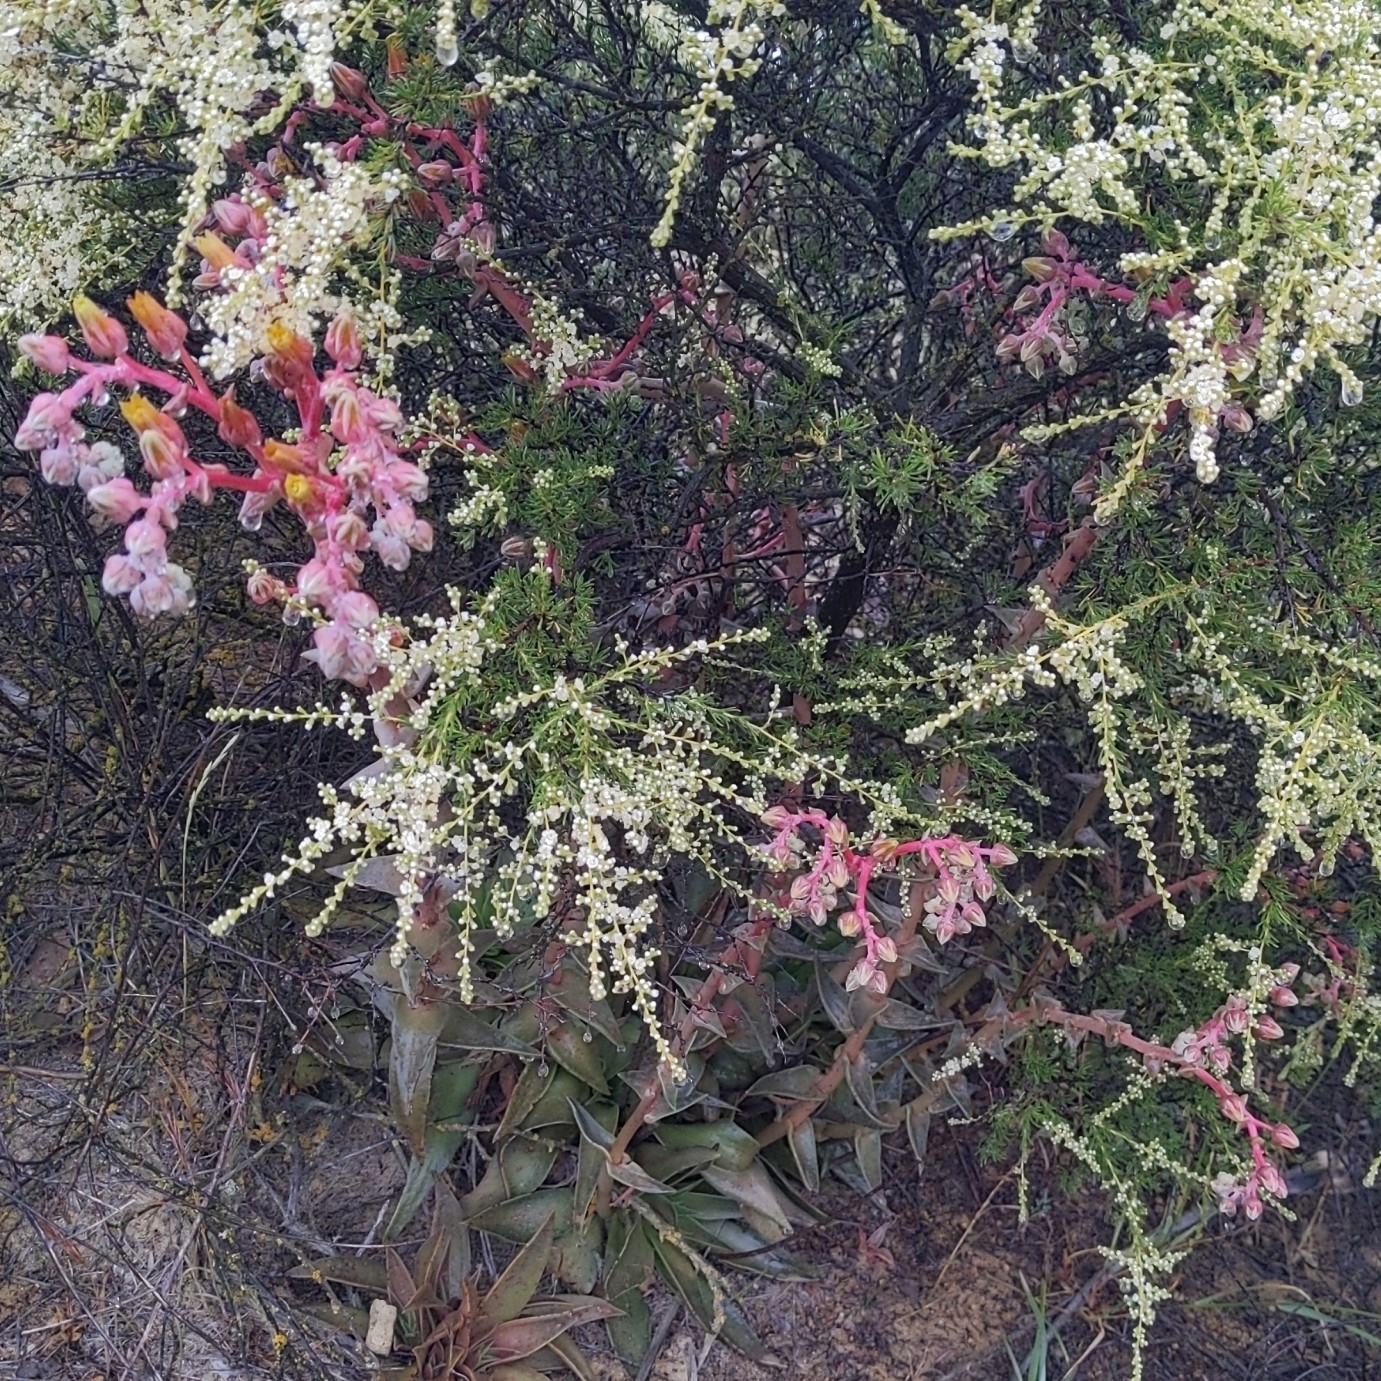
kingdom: Plantae
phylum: Tracheophyta
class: Magnoliopsida
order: Saxifragales
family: Crassulaceae
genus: Dudleya
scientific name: Dudleya lanceolata
